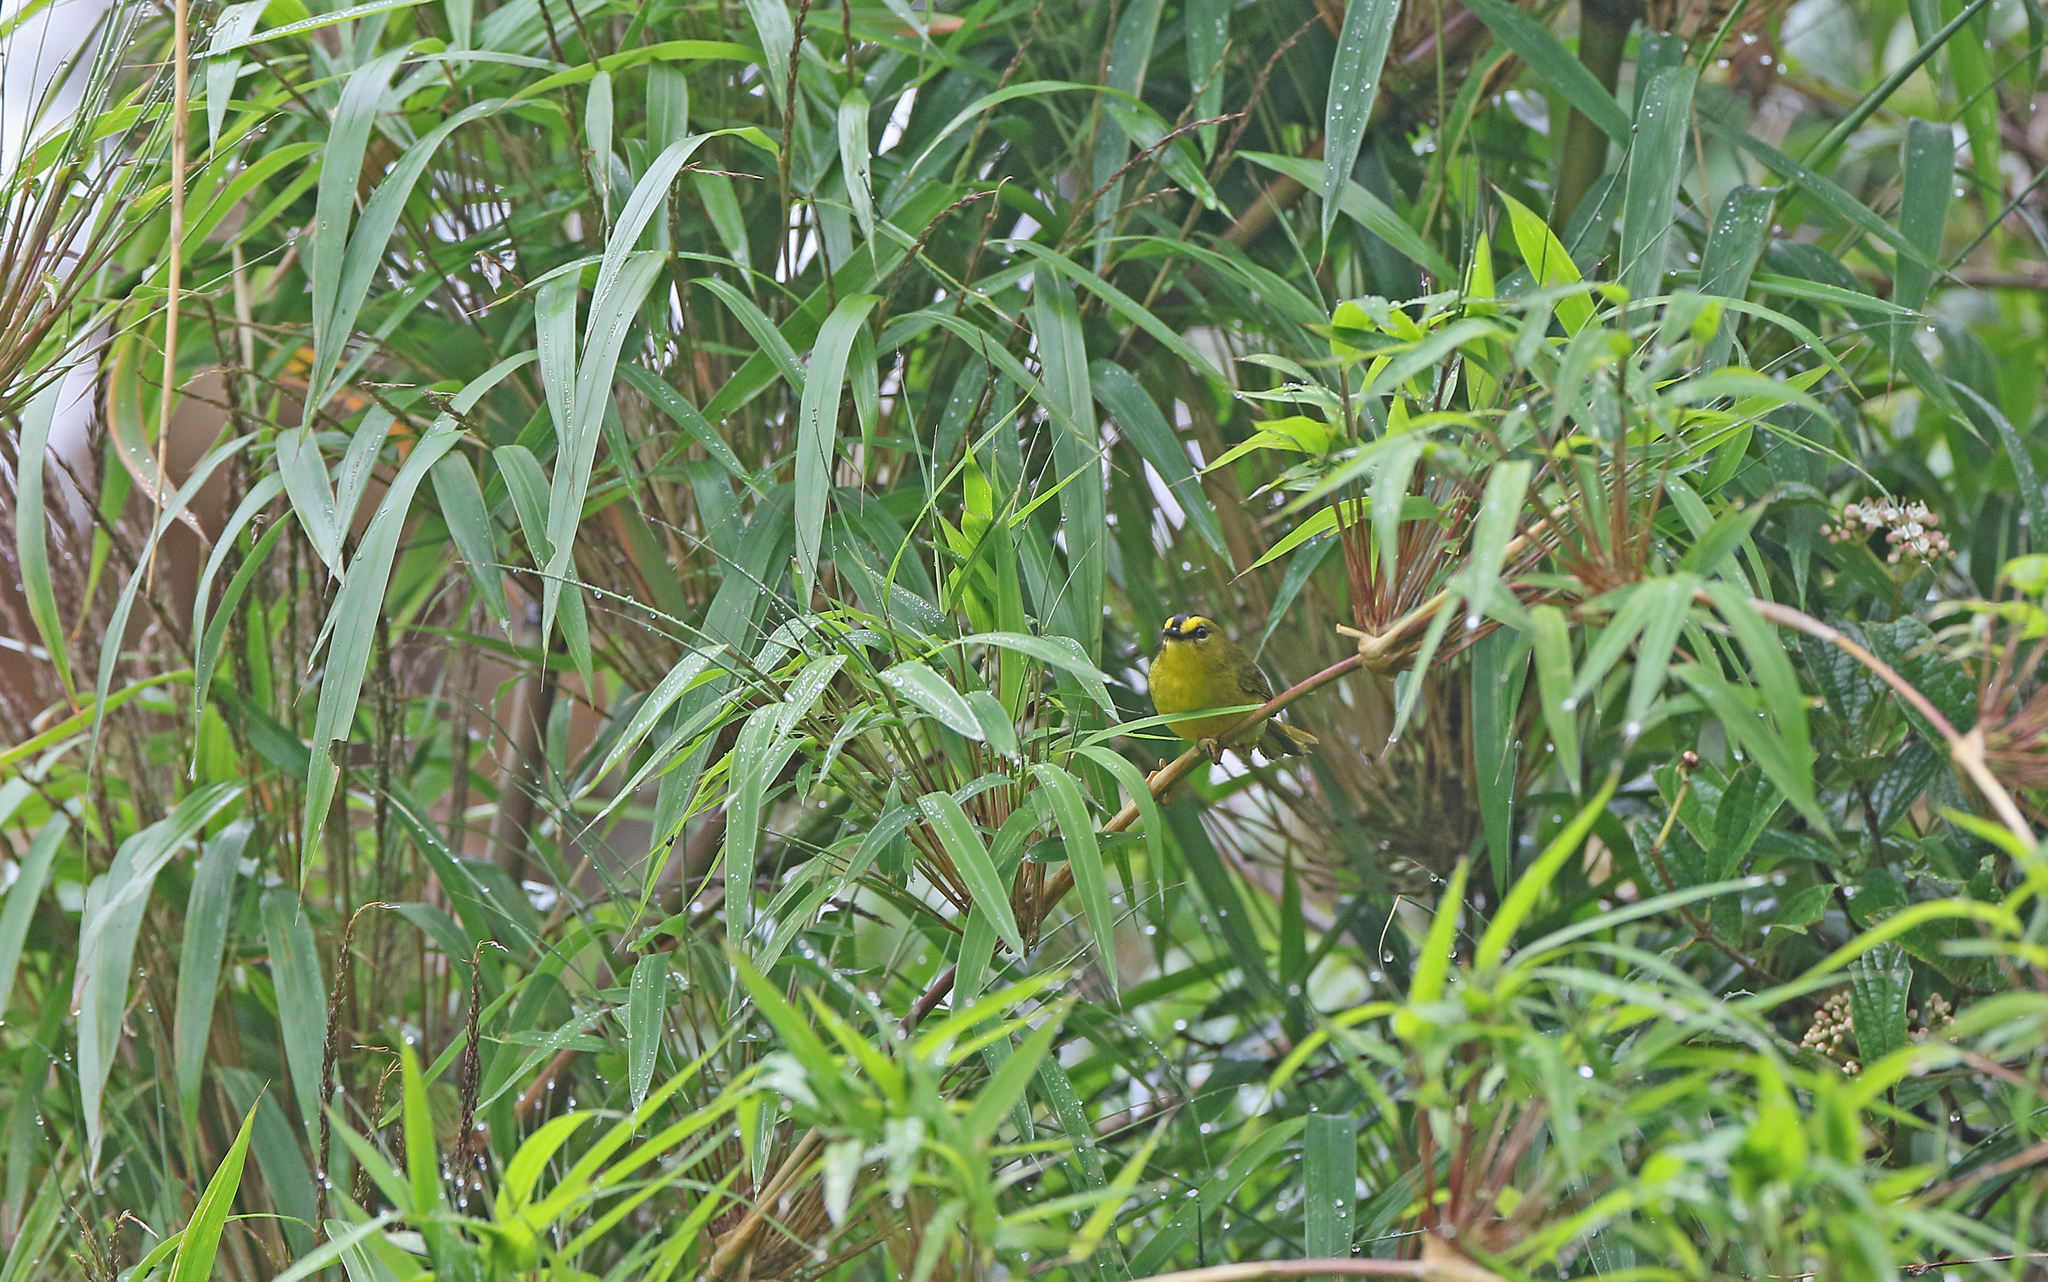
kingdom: Animalia
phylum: Chordata
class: Aves
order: Passeriformes
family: Parulidae
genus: Myiothlypis
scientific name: Myiothlypis nigrocristata
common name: Black-crested warbler
